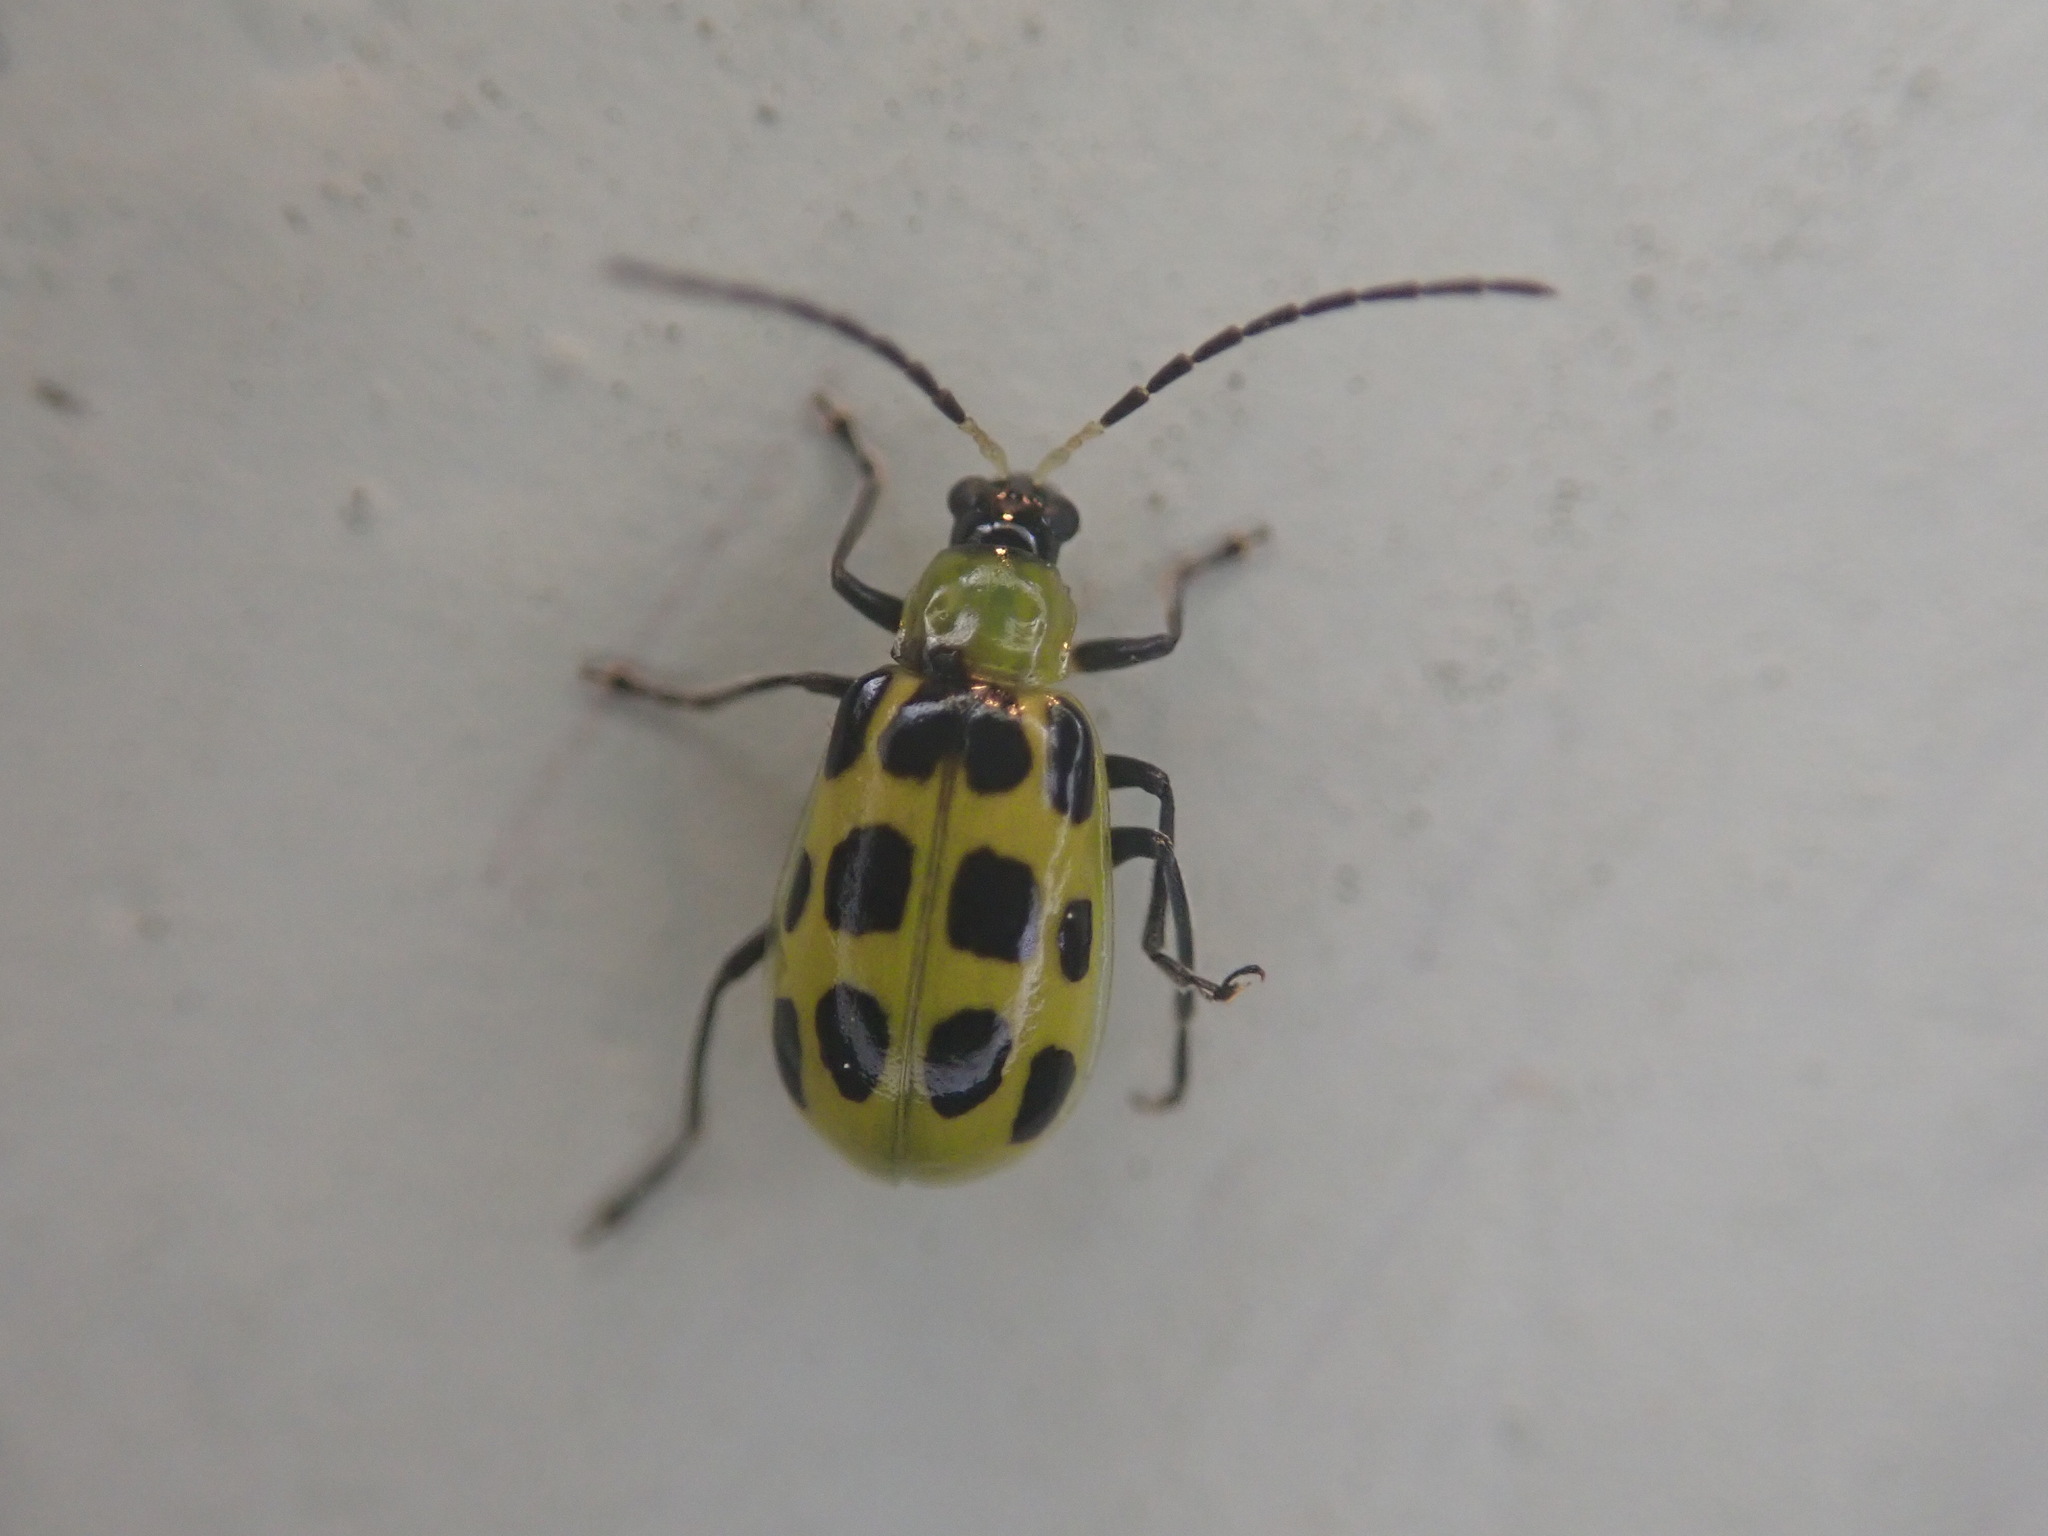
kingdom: Animalia
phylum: Arthropoda
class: Insecta
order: Coleoptera
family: Chrysomelidae
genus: Diabrotica
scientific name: Diabrotica undecimpunctata
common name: Spotted cucumber beetle
